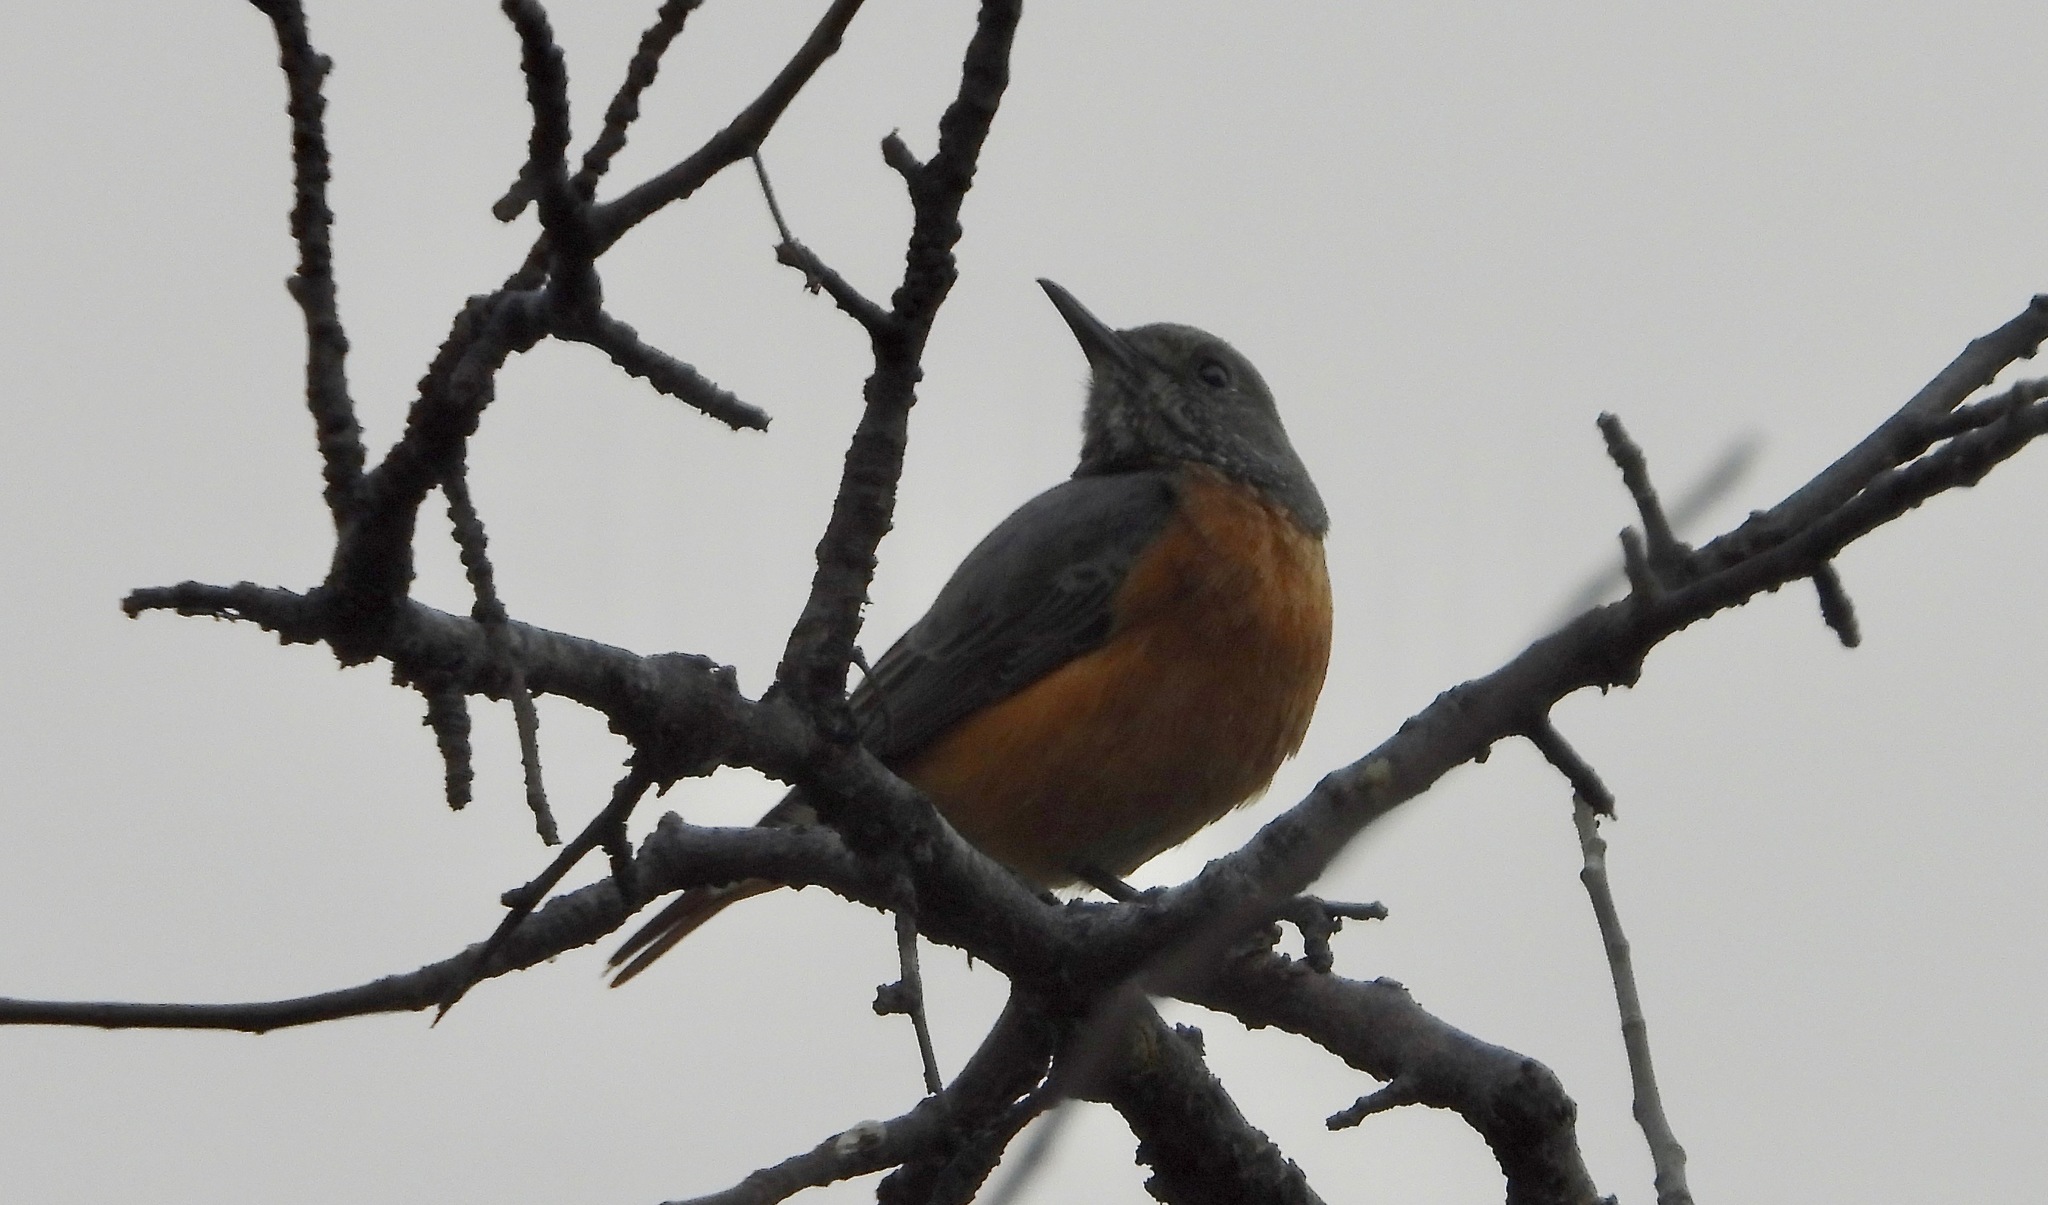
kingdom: Animalia
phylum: Chordata
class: Aves
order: Passeriformes
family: Muscicapidae
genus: Monticola
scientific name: Monticola brevipes
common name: Short-toed rock thrush
